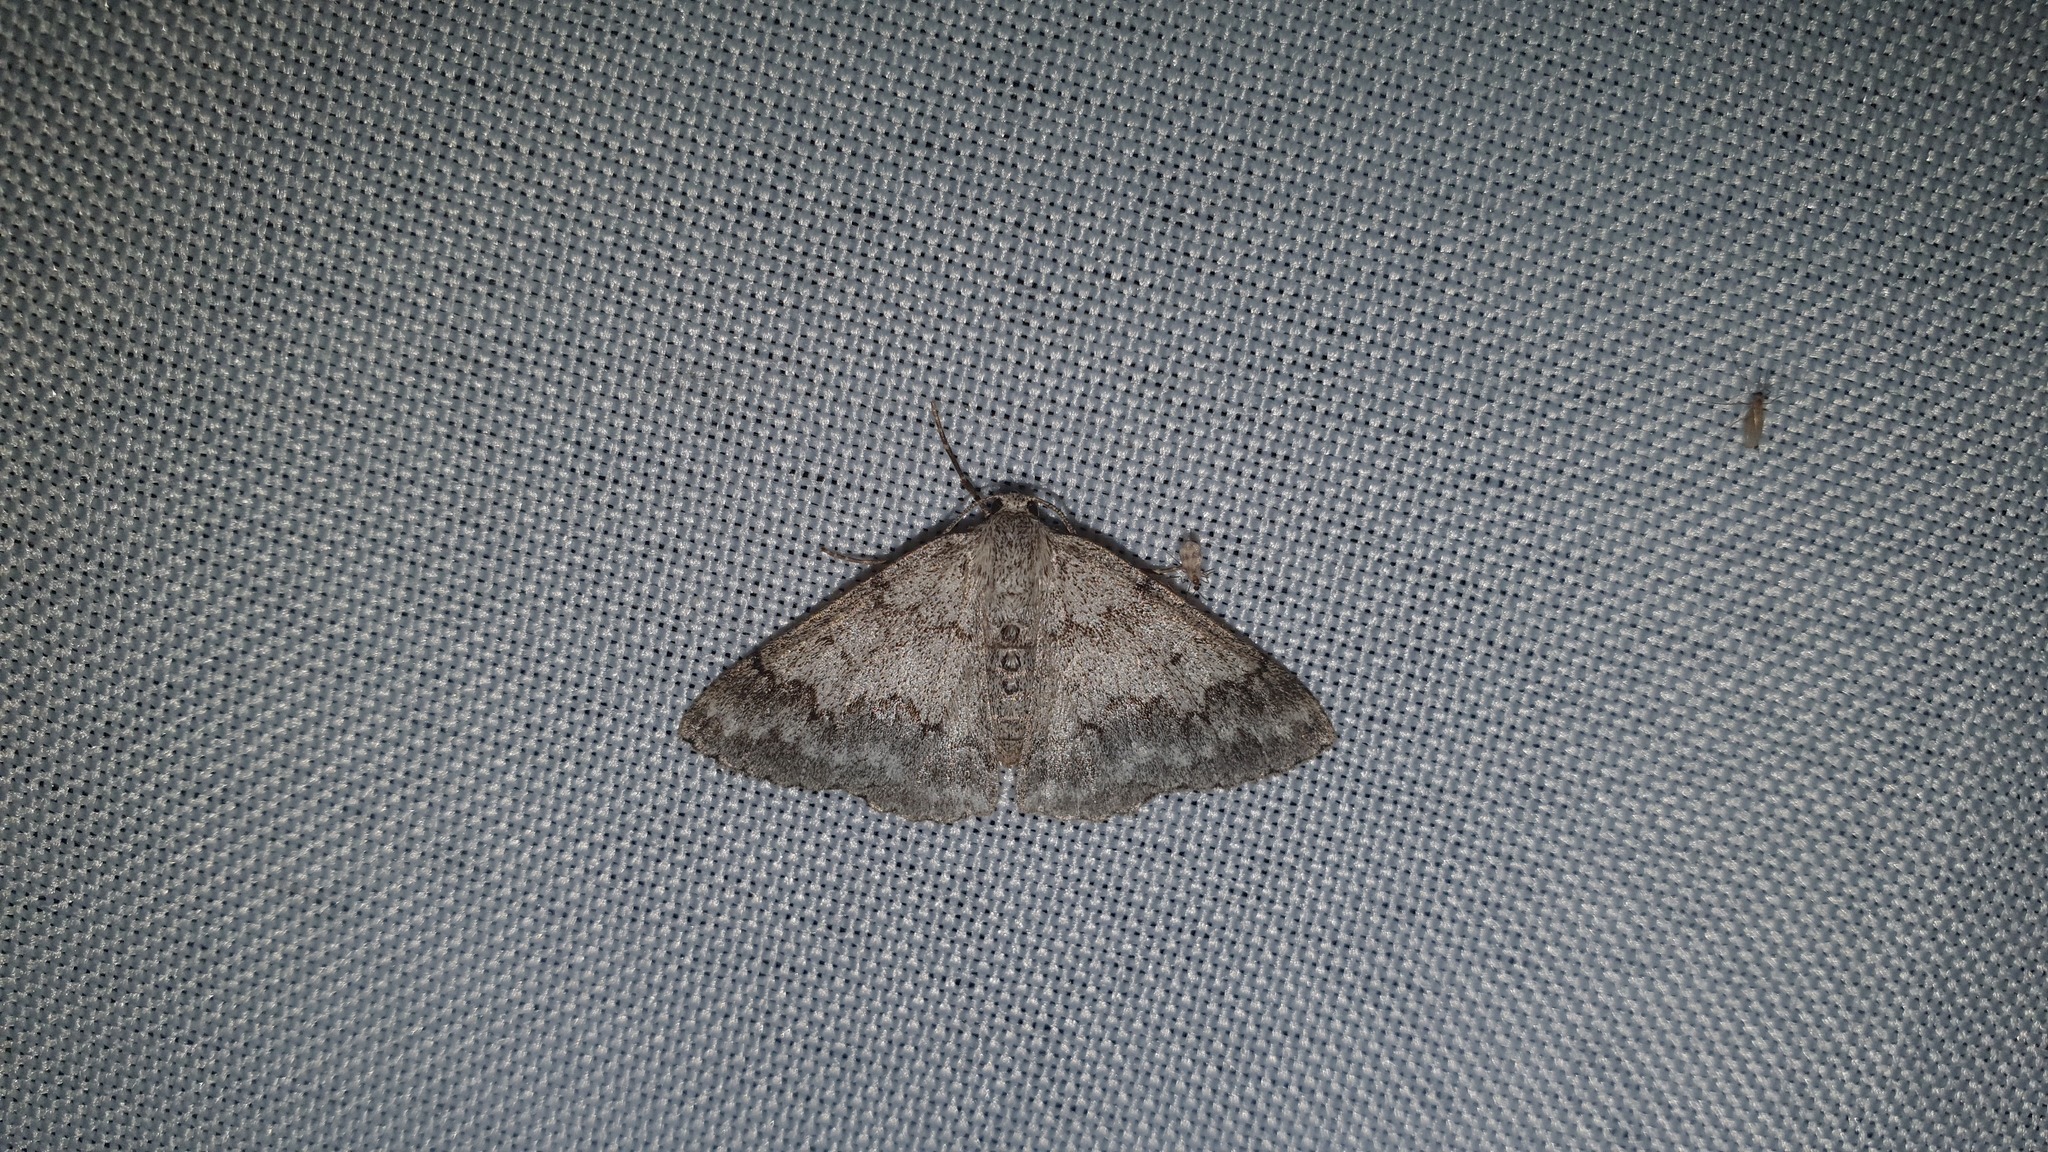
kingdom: Animalia
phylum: Arthropoda
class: Insecta
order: Lepidoptera
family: Geometridae
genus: Pseudoterpna
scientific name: Pseudoterpna coronillaria
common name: Jersey emerald
